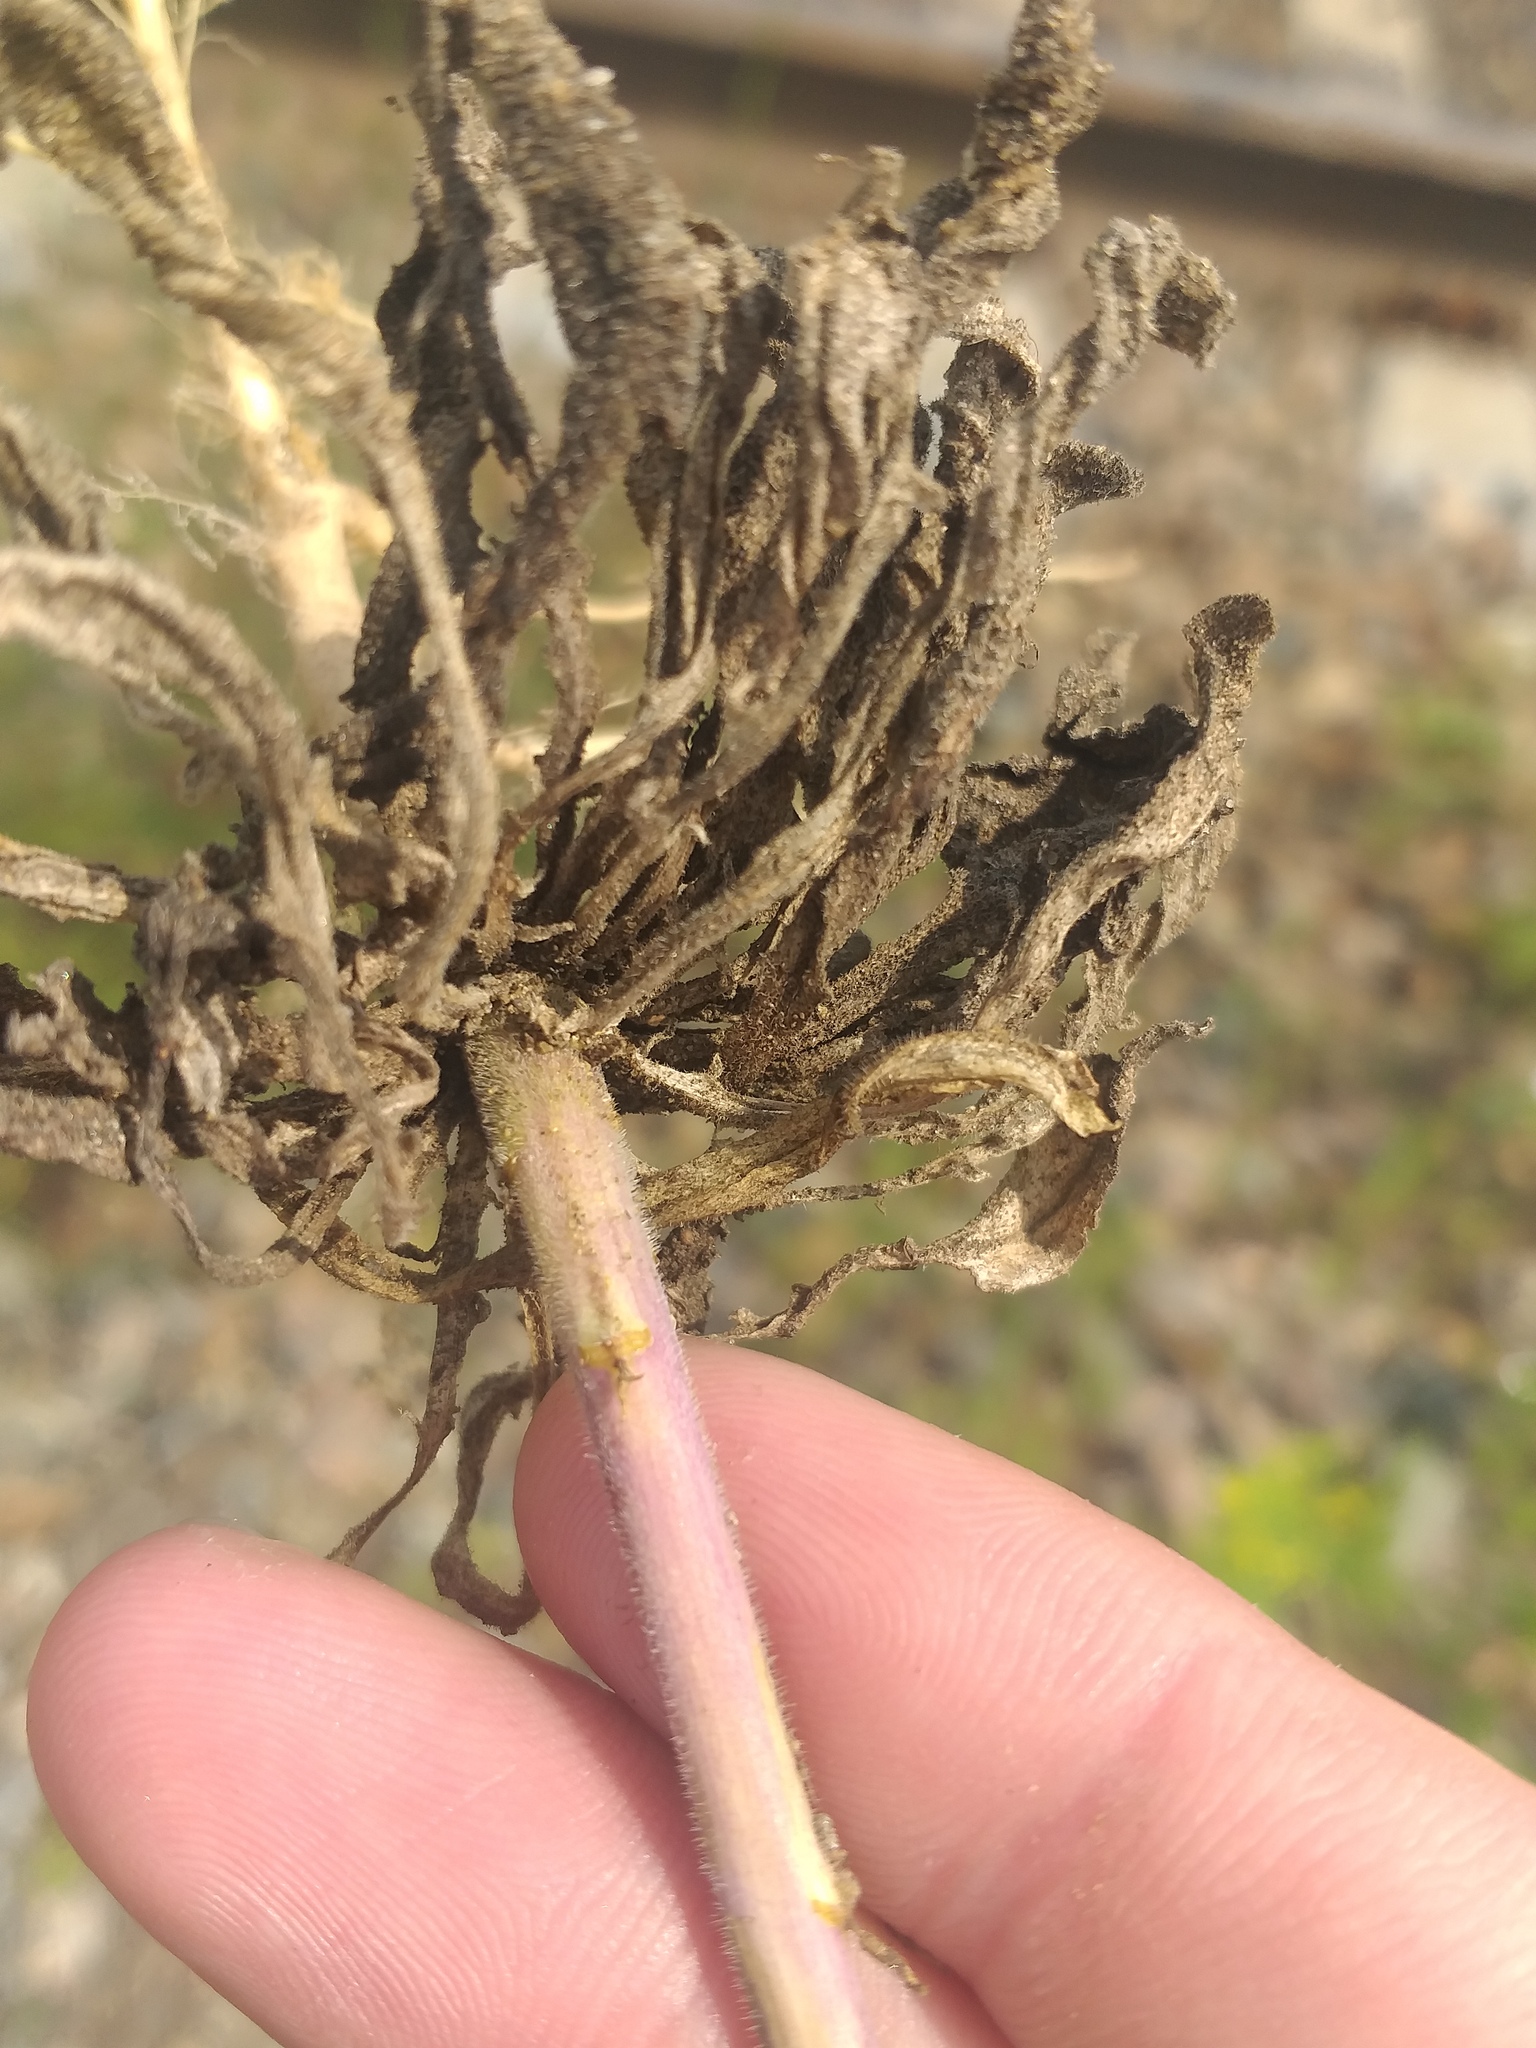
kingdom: Plantae
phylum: Tracheophyta
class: Magnoliopsida
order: Brassicales
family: Brassicaceae
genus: Turritis
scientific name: Turritis glabra
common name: Tower rockcress
